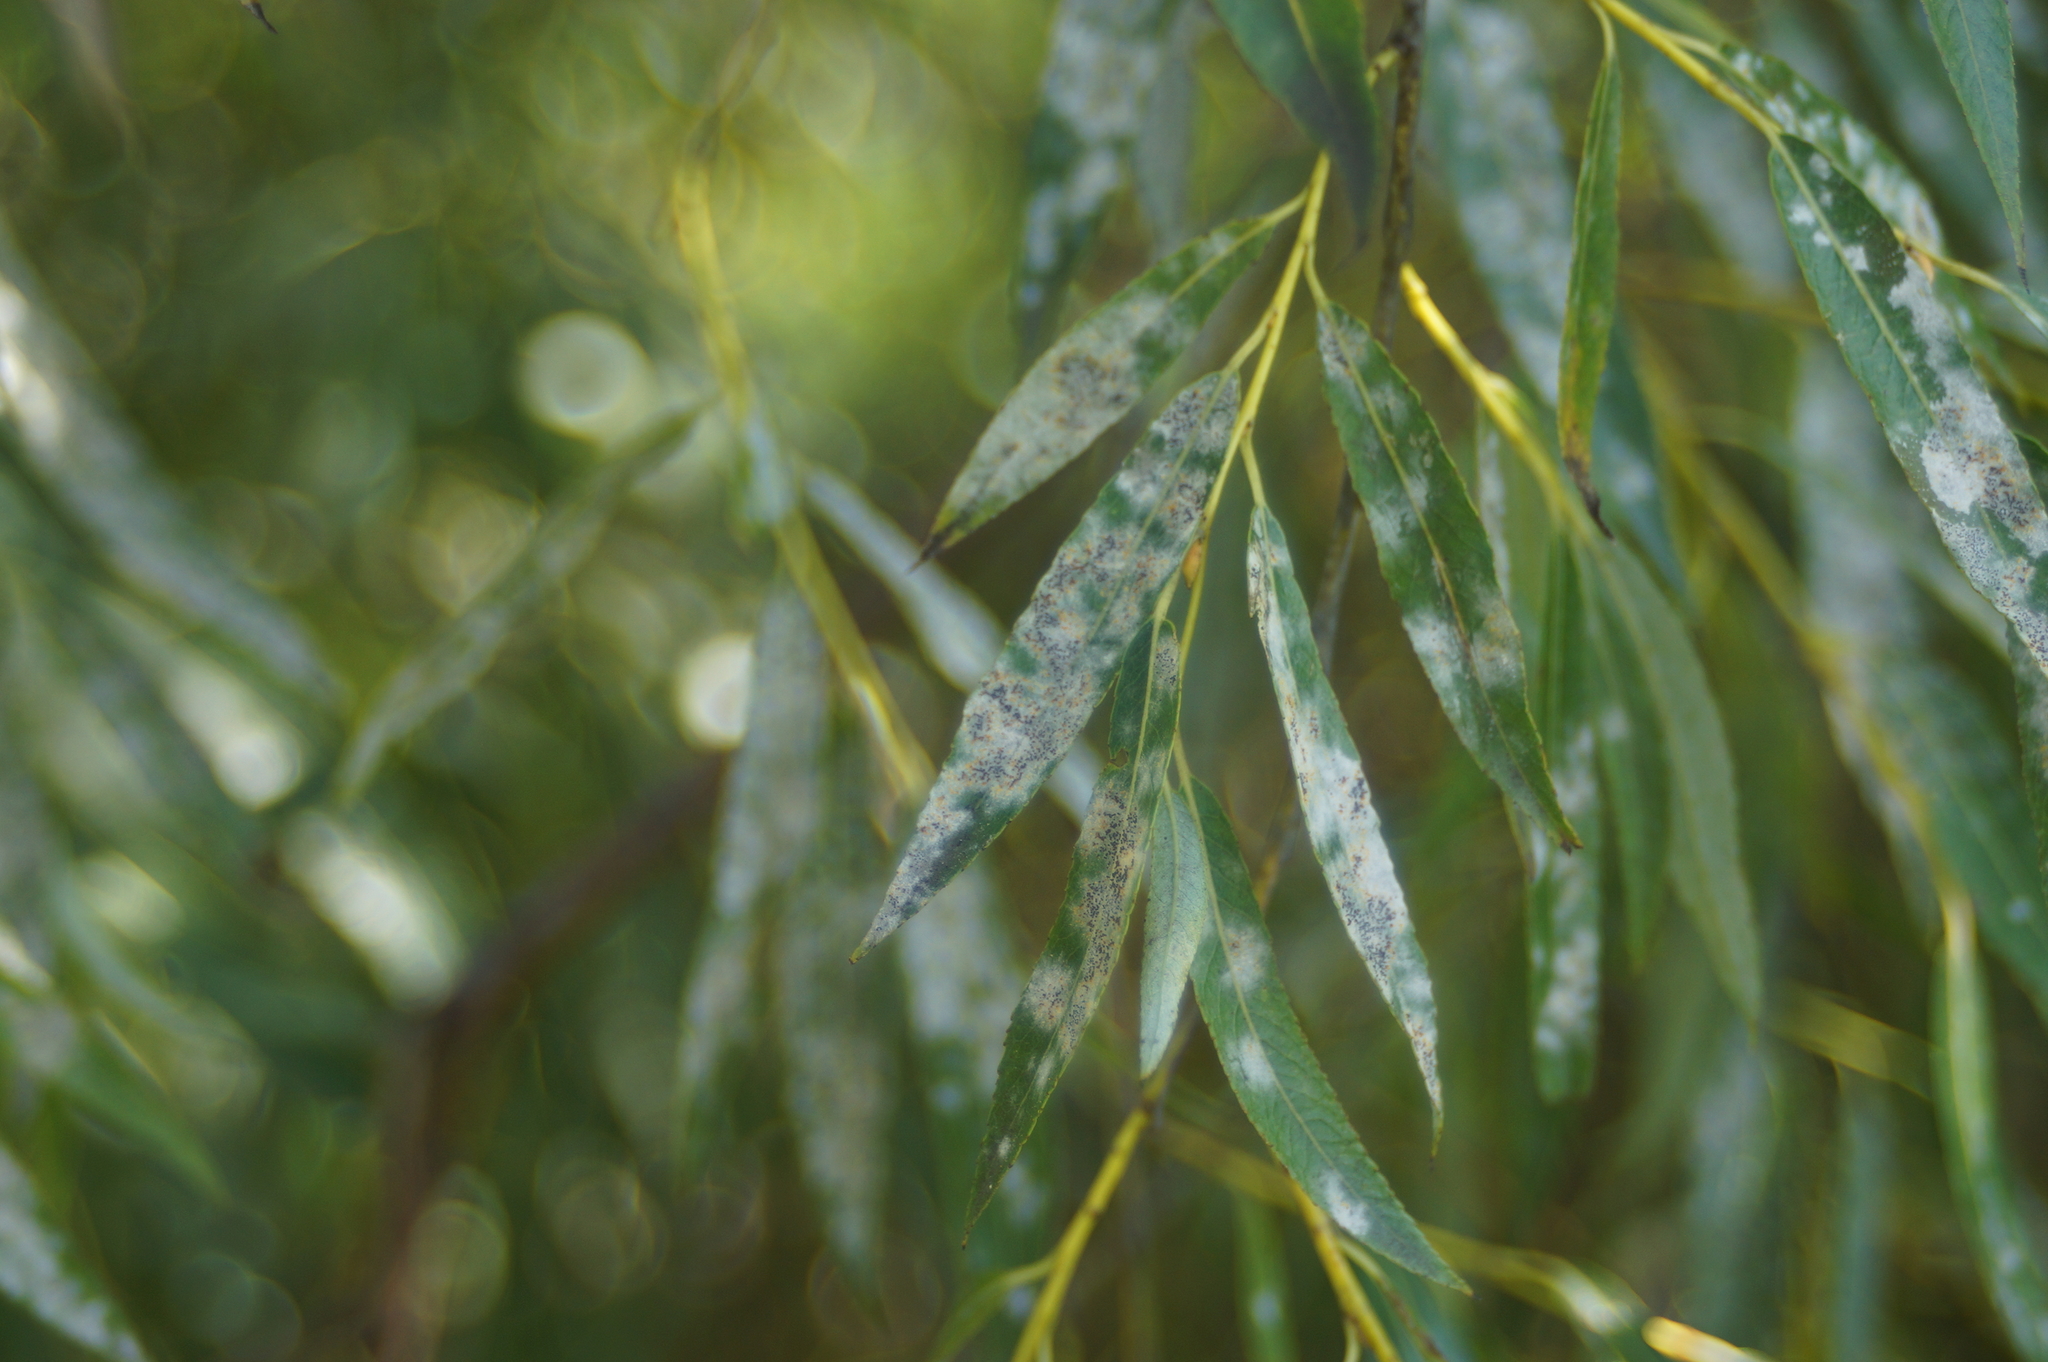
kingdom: Fungi
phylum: Ascomycota
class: Leotiomycetes
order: Helotiales
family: Erysiphaceae
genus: Erysiphe
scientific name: Erysiphe salicis
